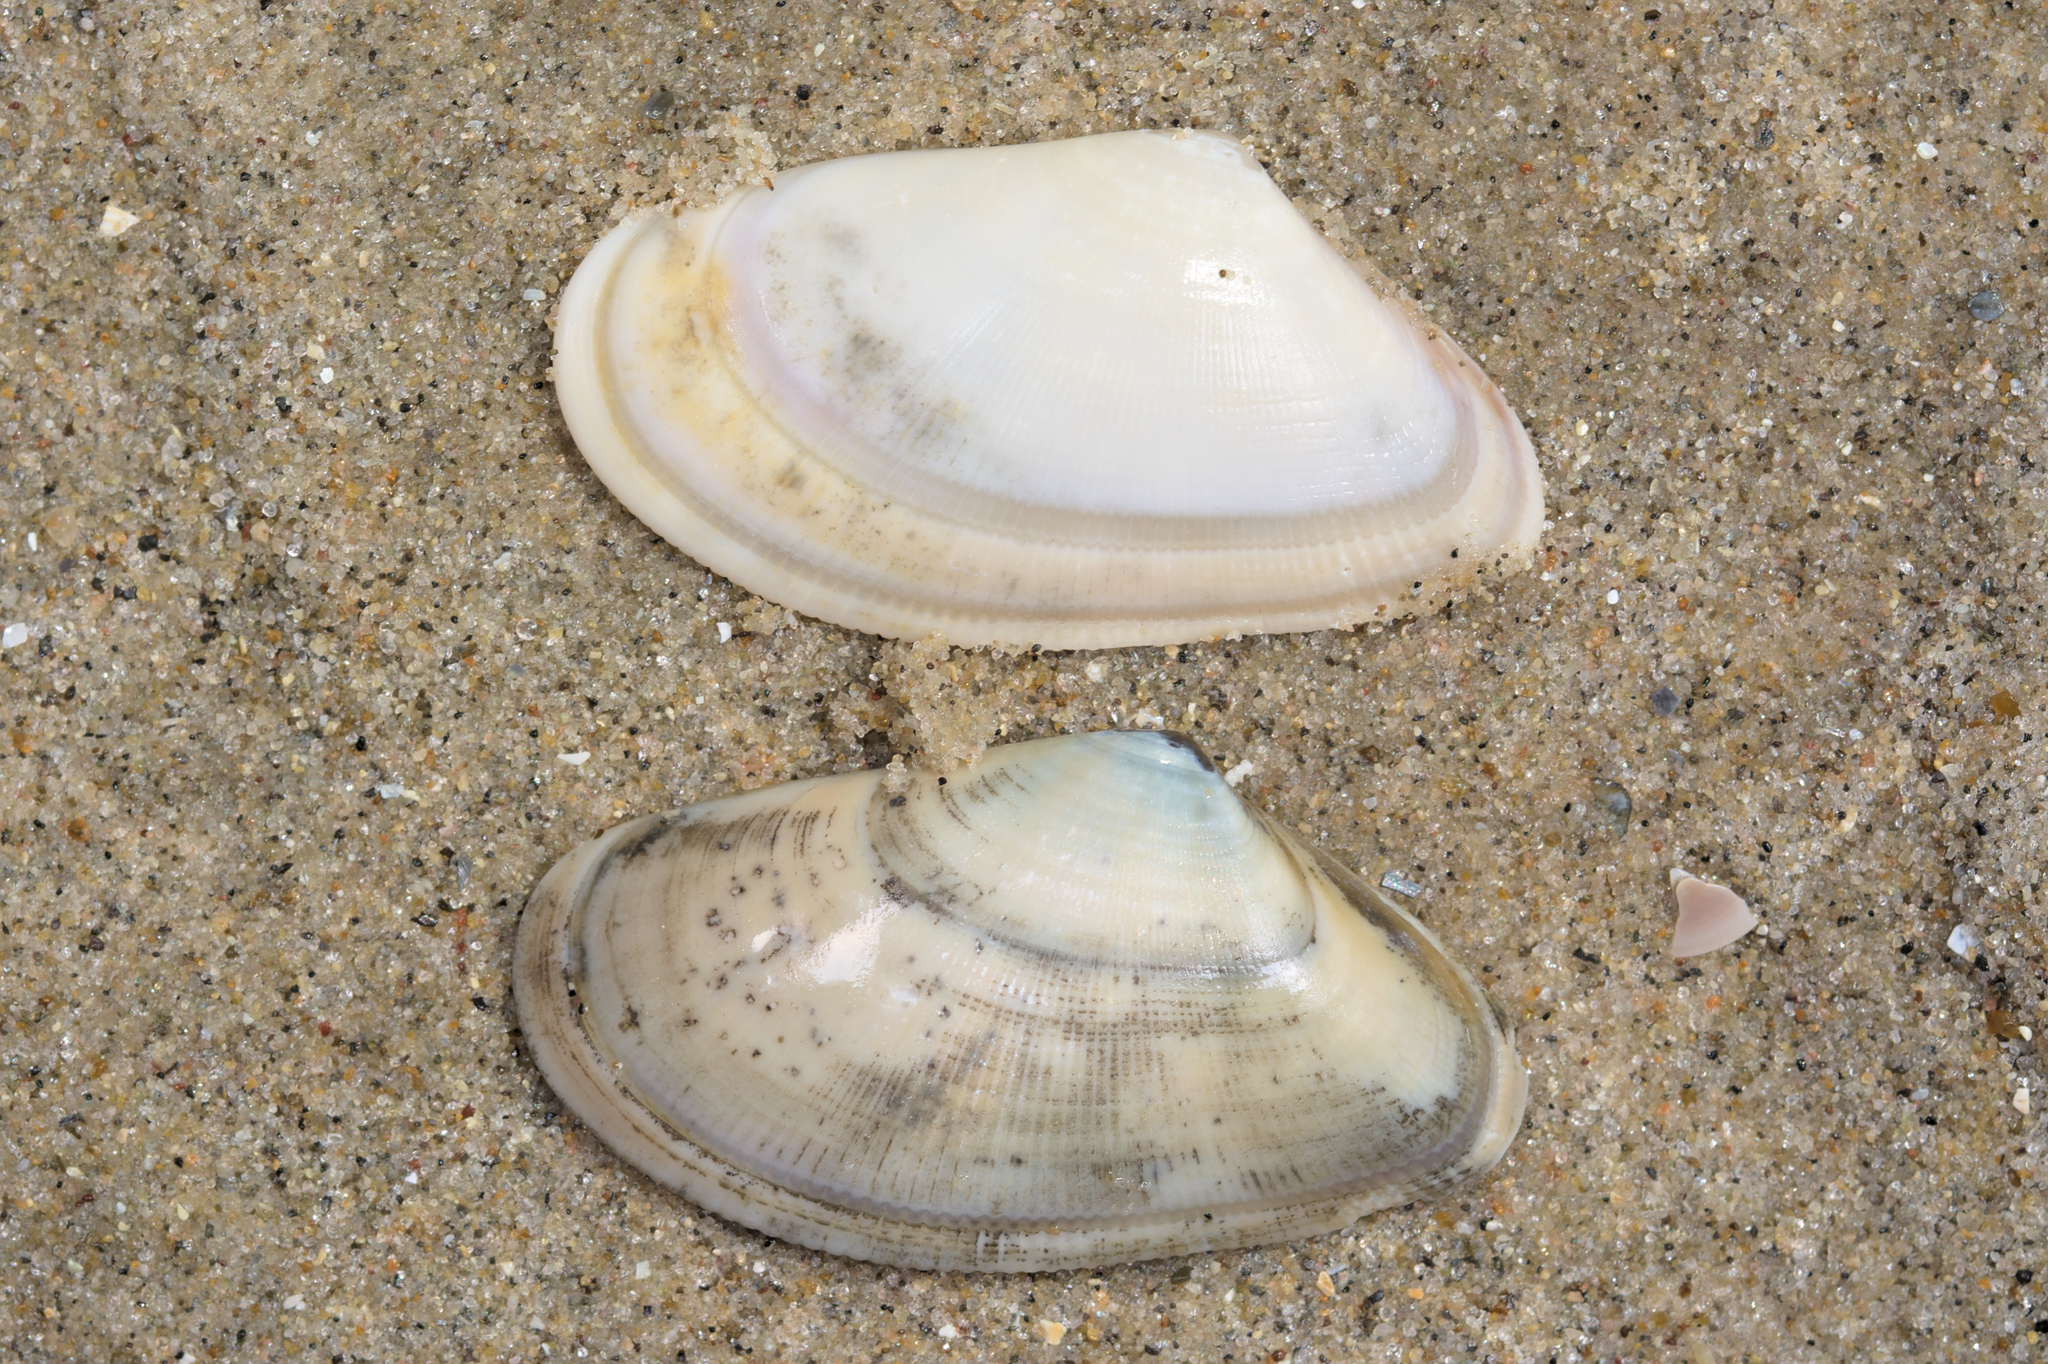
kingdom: Animalia
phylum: Mollusca
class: Bivalvia
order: Cardiida
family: Donacidae
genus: Donax
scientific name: Donax vittatus
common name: Banded wedge-shell
